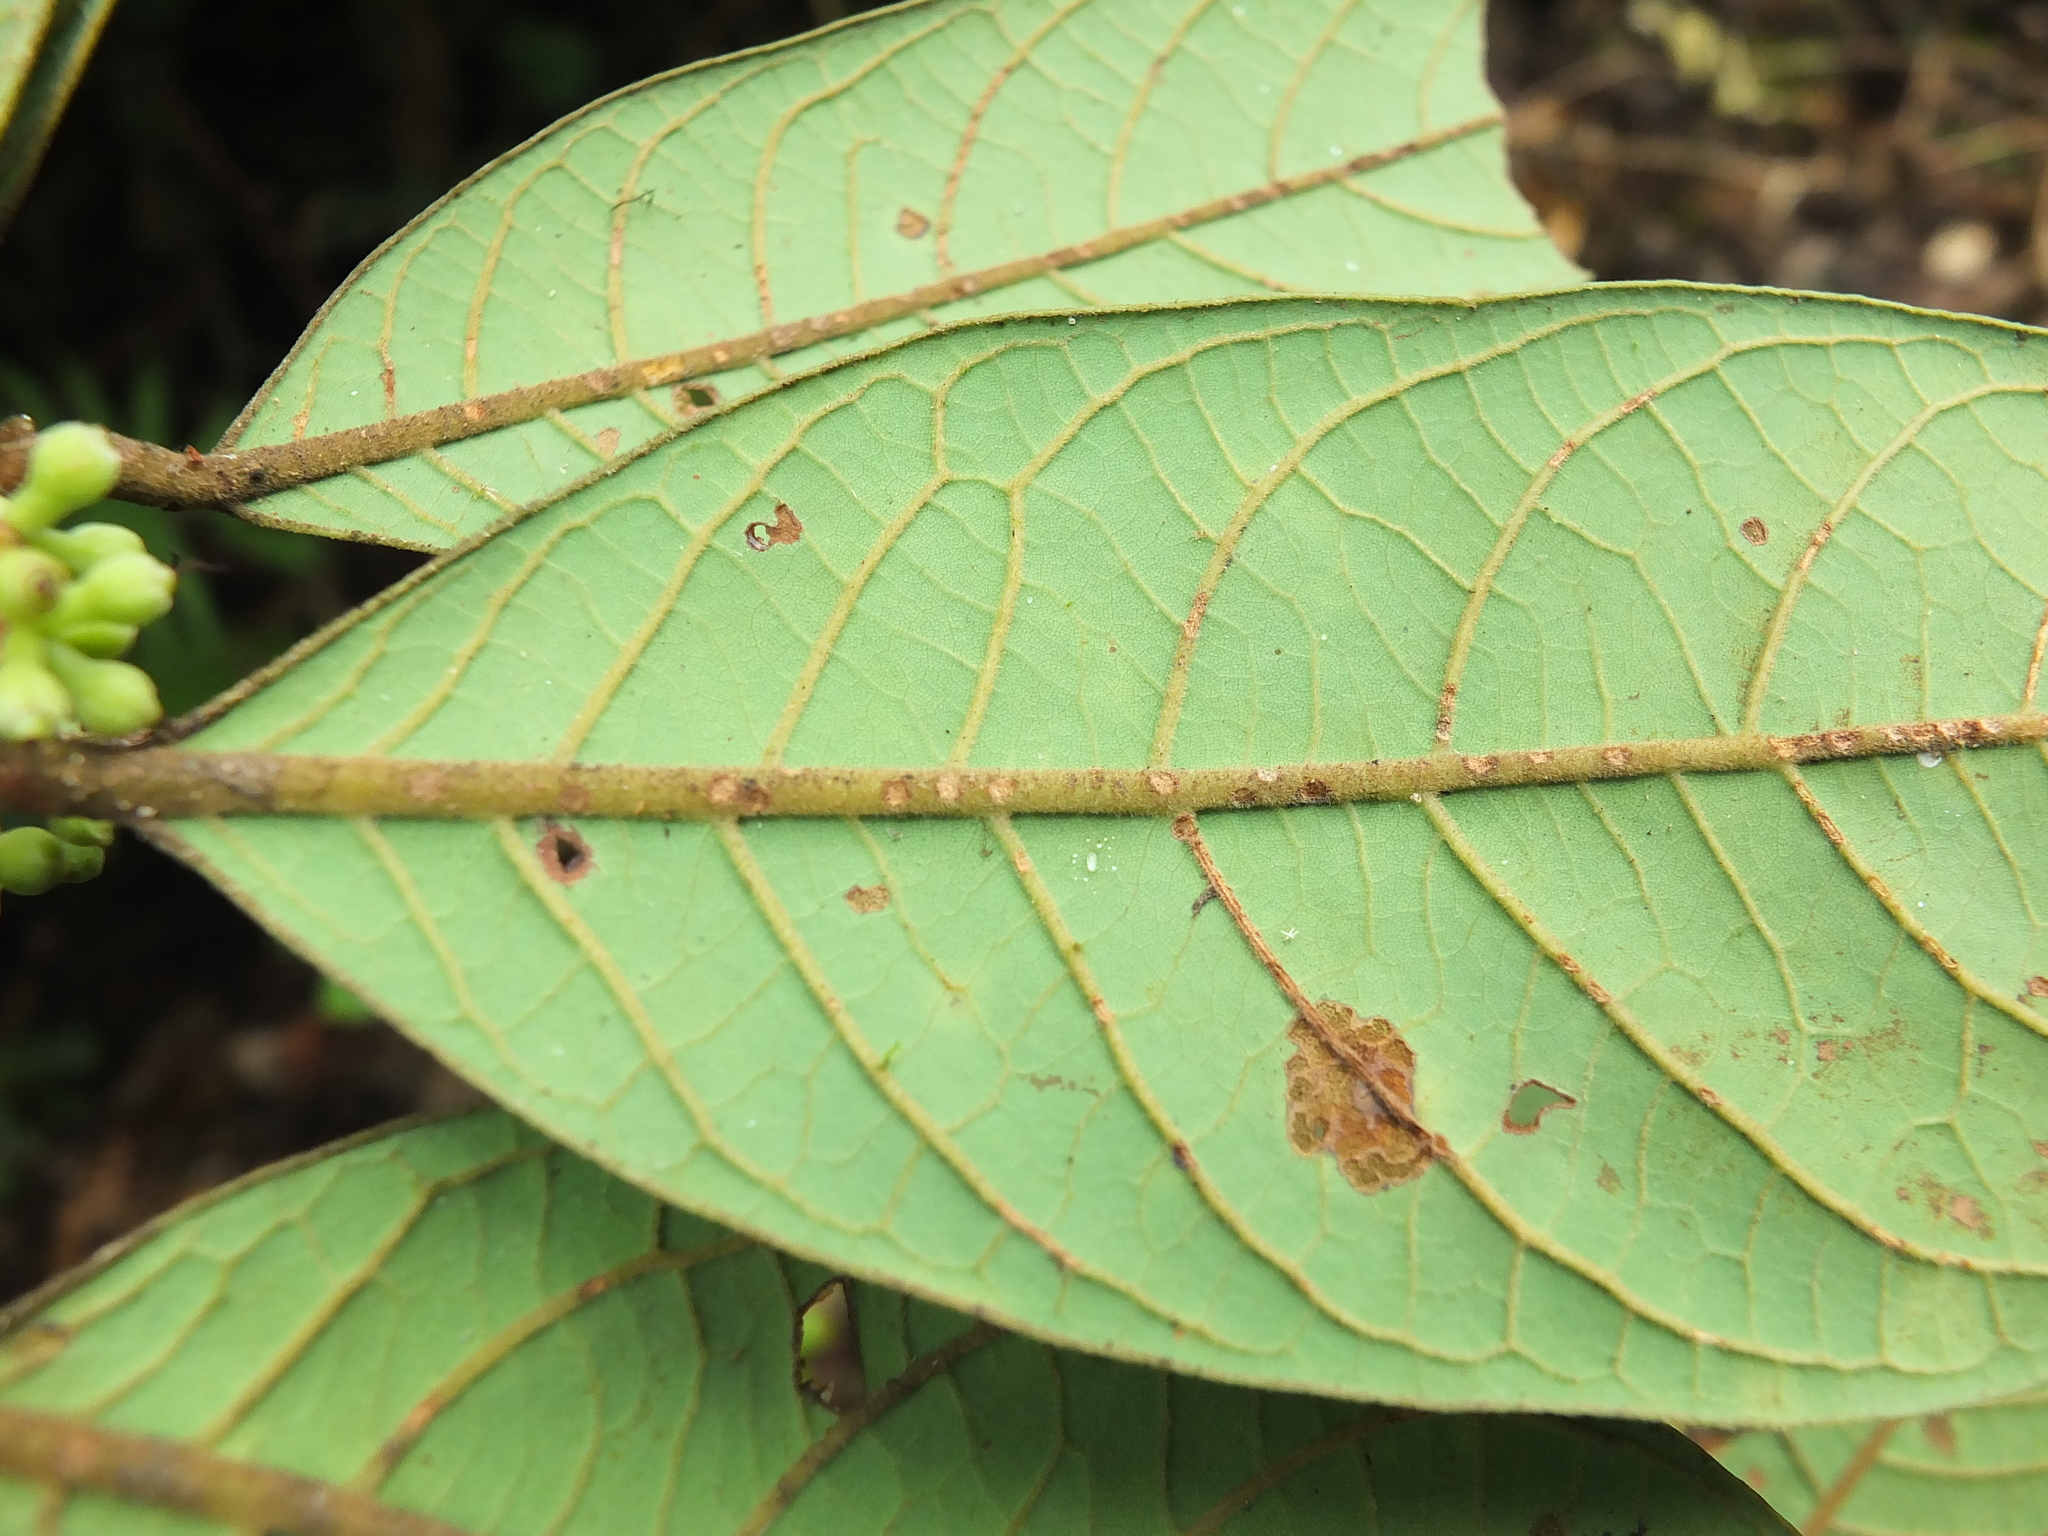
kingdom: Plantae
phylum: Tracheophyta
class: Magnoliopsida
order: Laurales
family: Lauraceae
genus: Litsea
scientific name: Litsea floribunda
